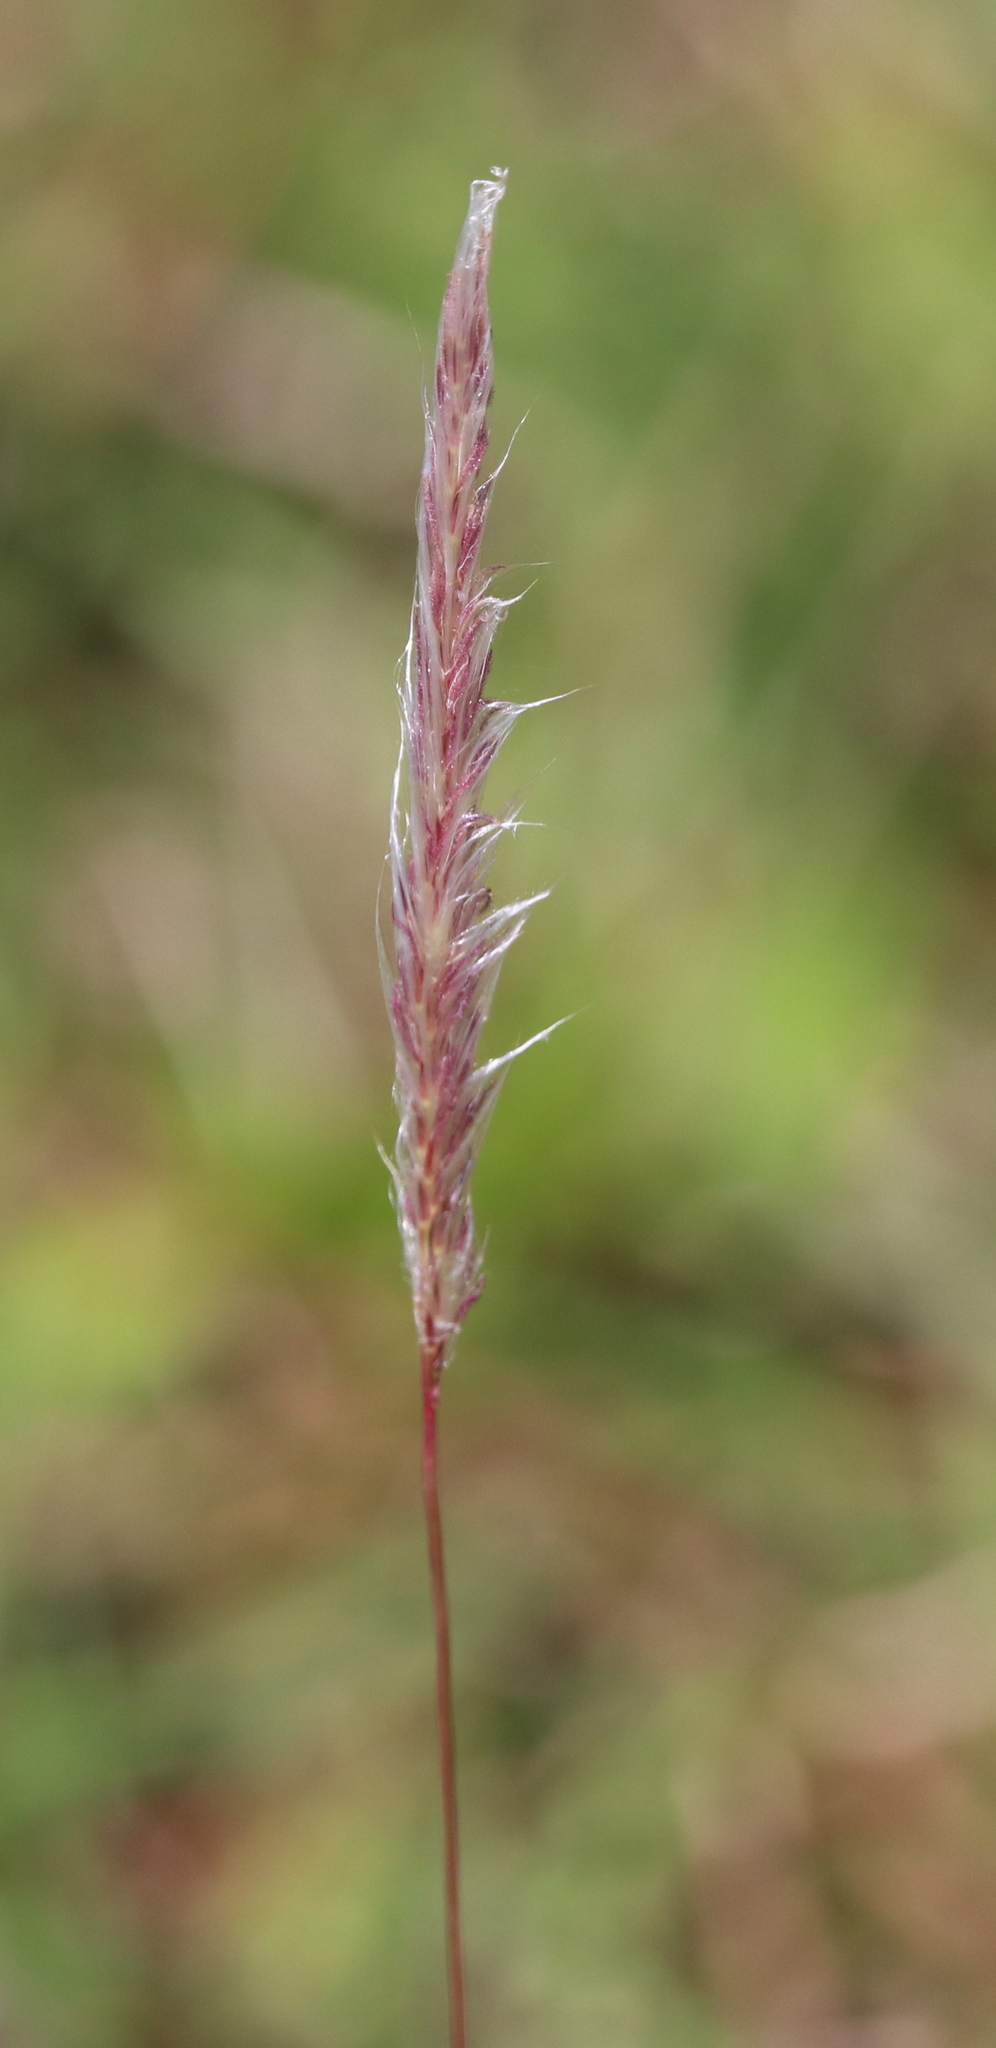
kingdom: Plantae
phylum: Tracheophyta
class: Liliopsida
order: Poales
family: Poaceae
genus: Imperata
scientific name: Imperata cylindrica
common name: Cogongrass
